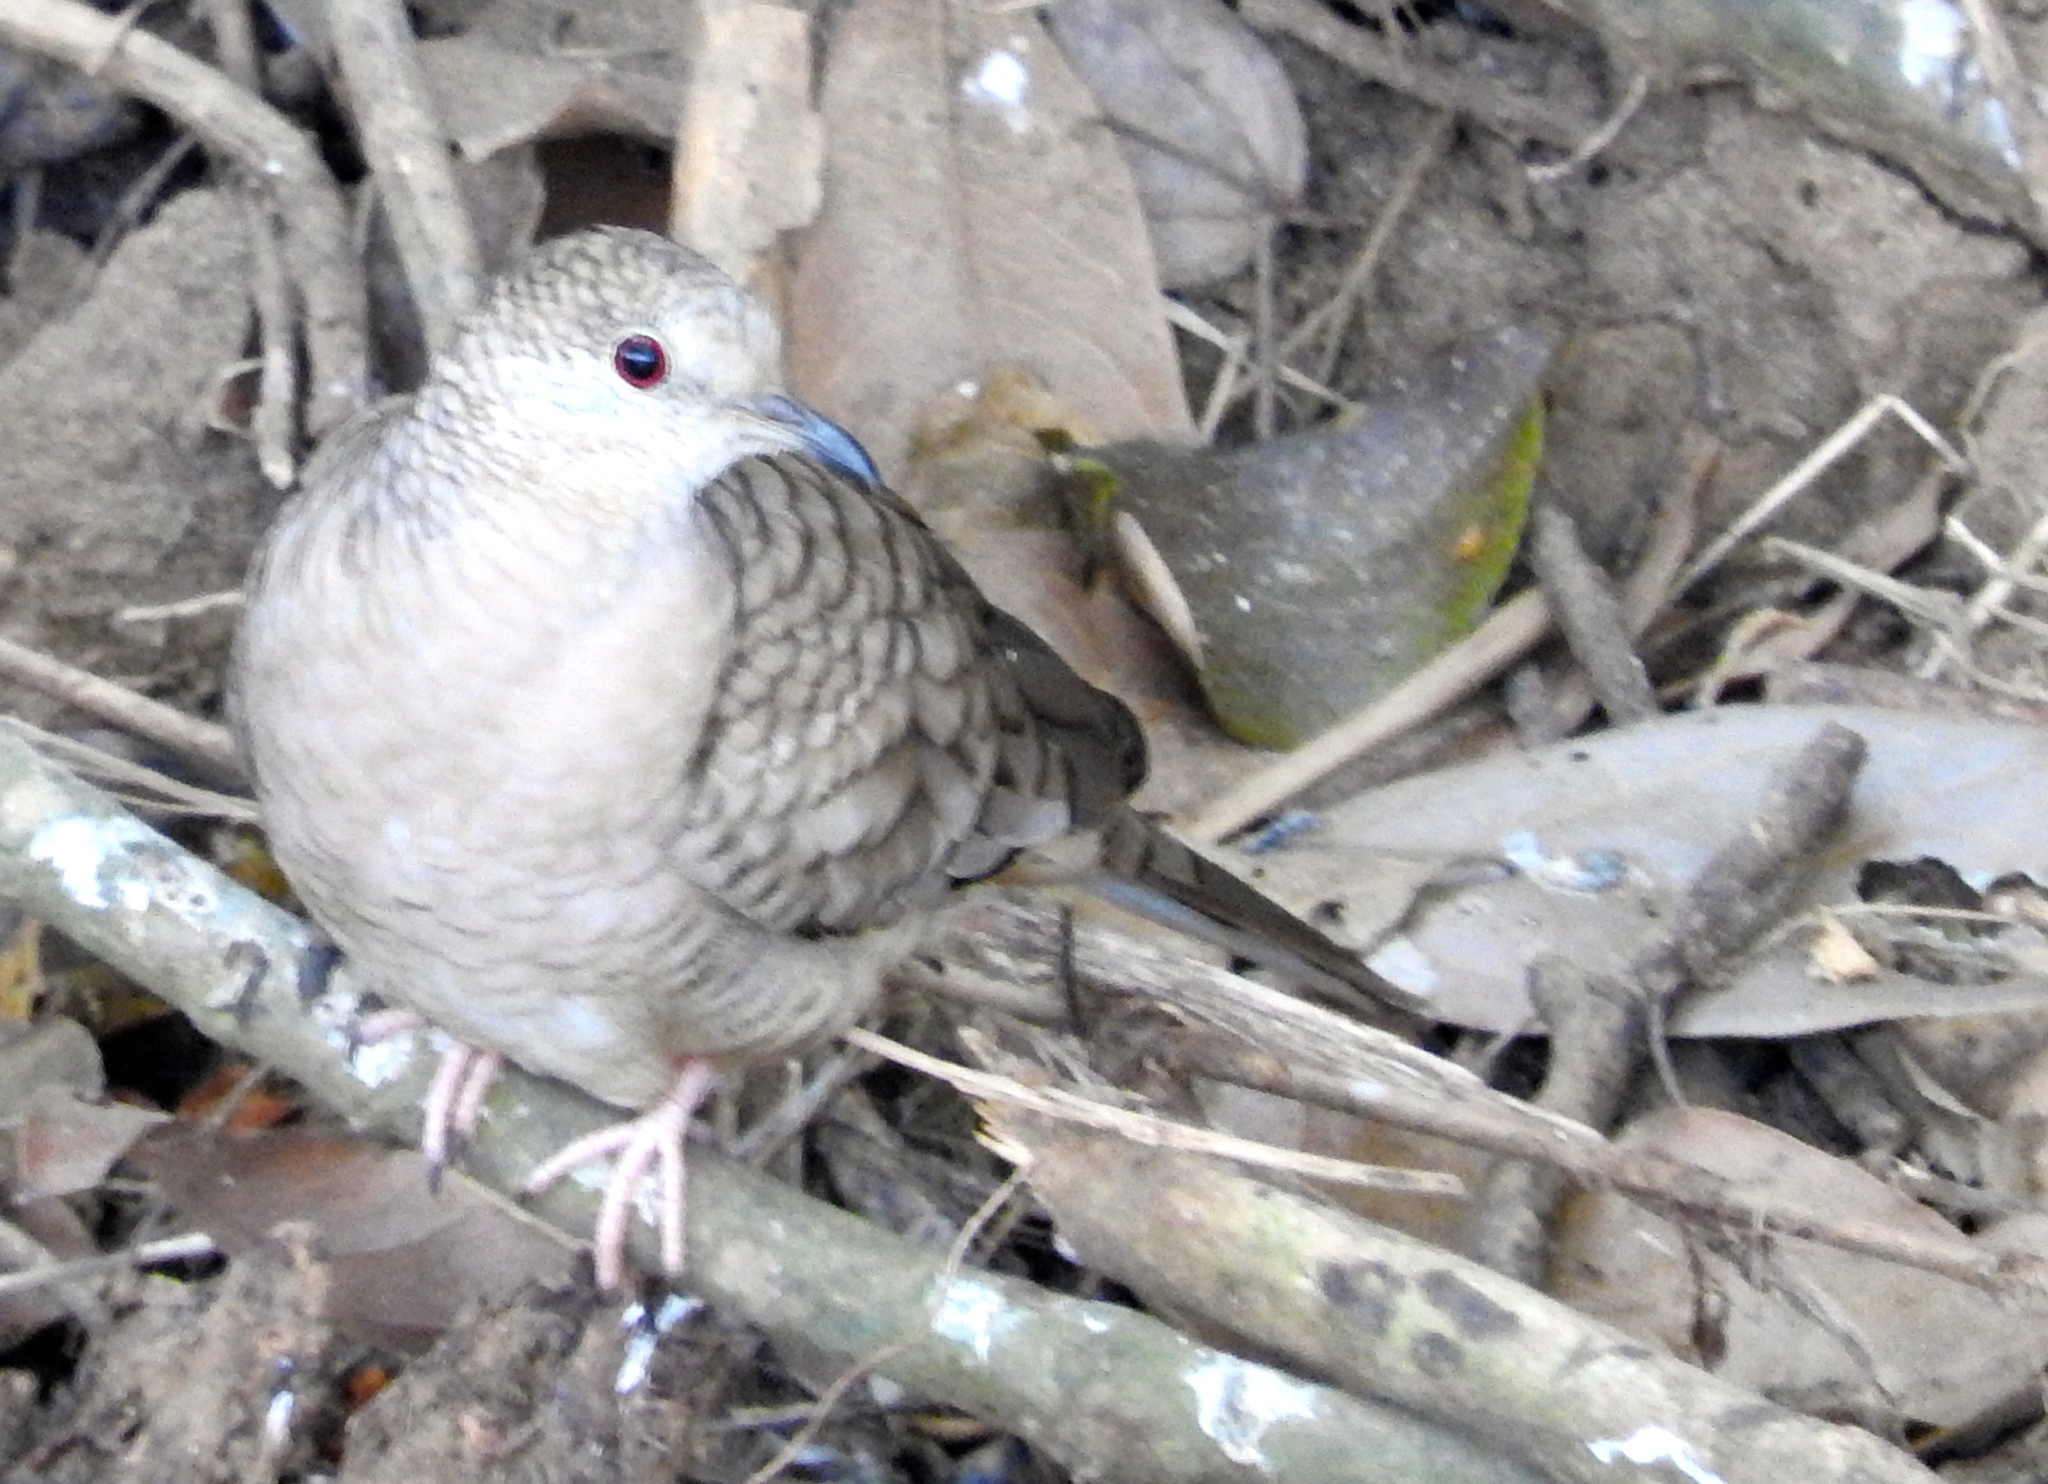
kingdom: Animalia
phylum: Chordata
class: Aves
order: Columbiformes
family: Columbidae
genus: Columbina
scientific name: Columbina inca
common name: Inca dove
